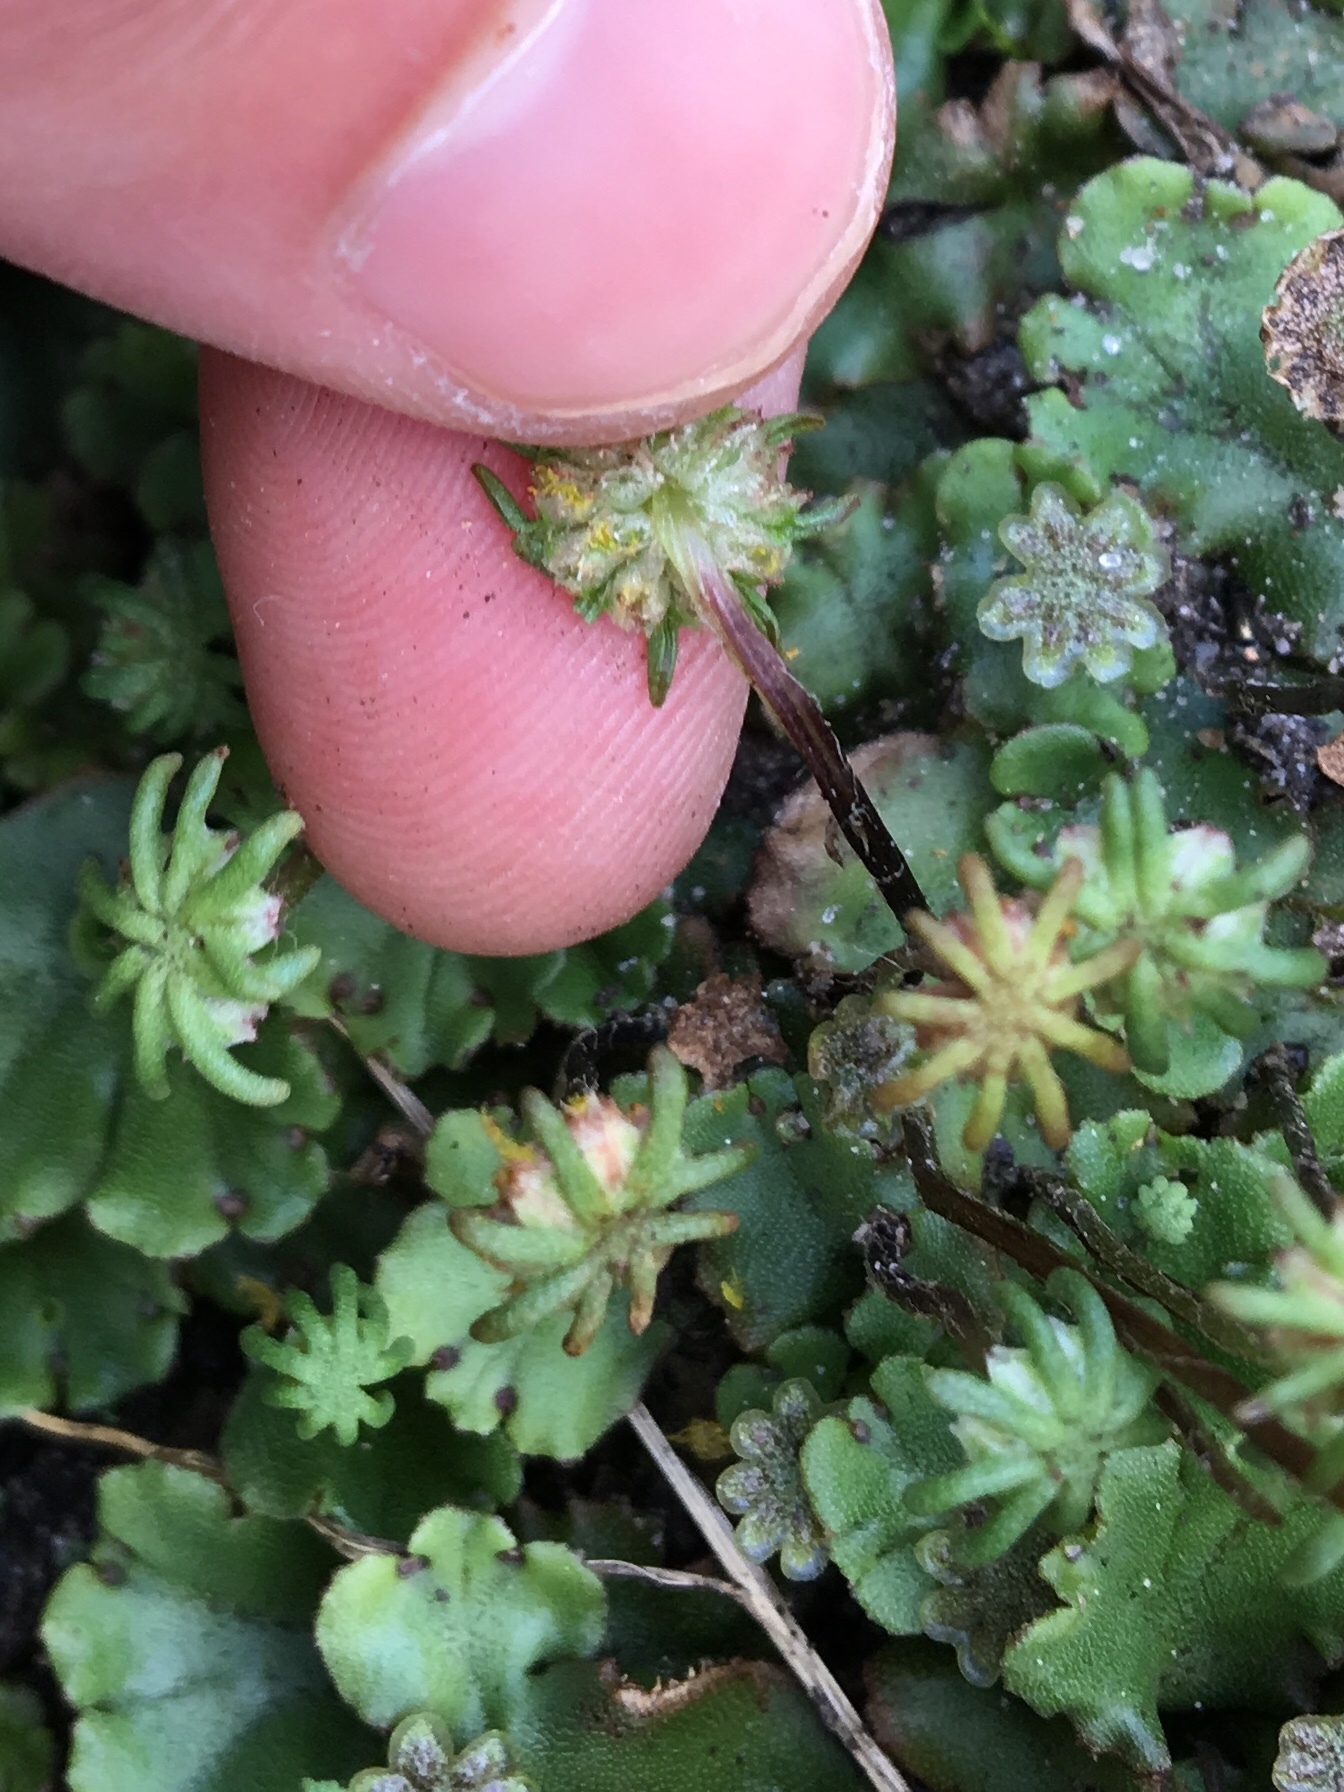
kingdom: Plantae
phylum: Marchantiophyta
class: Marchantiopsida
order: Marchantiales
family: Marchantiaceae
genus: Marchantia
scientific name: Marchantia polymorpha
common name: Common liverwort
